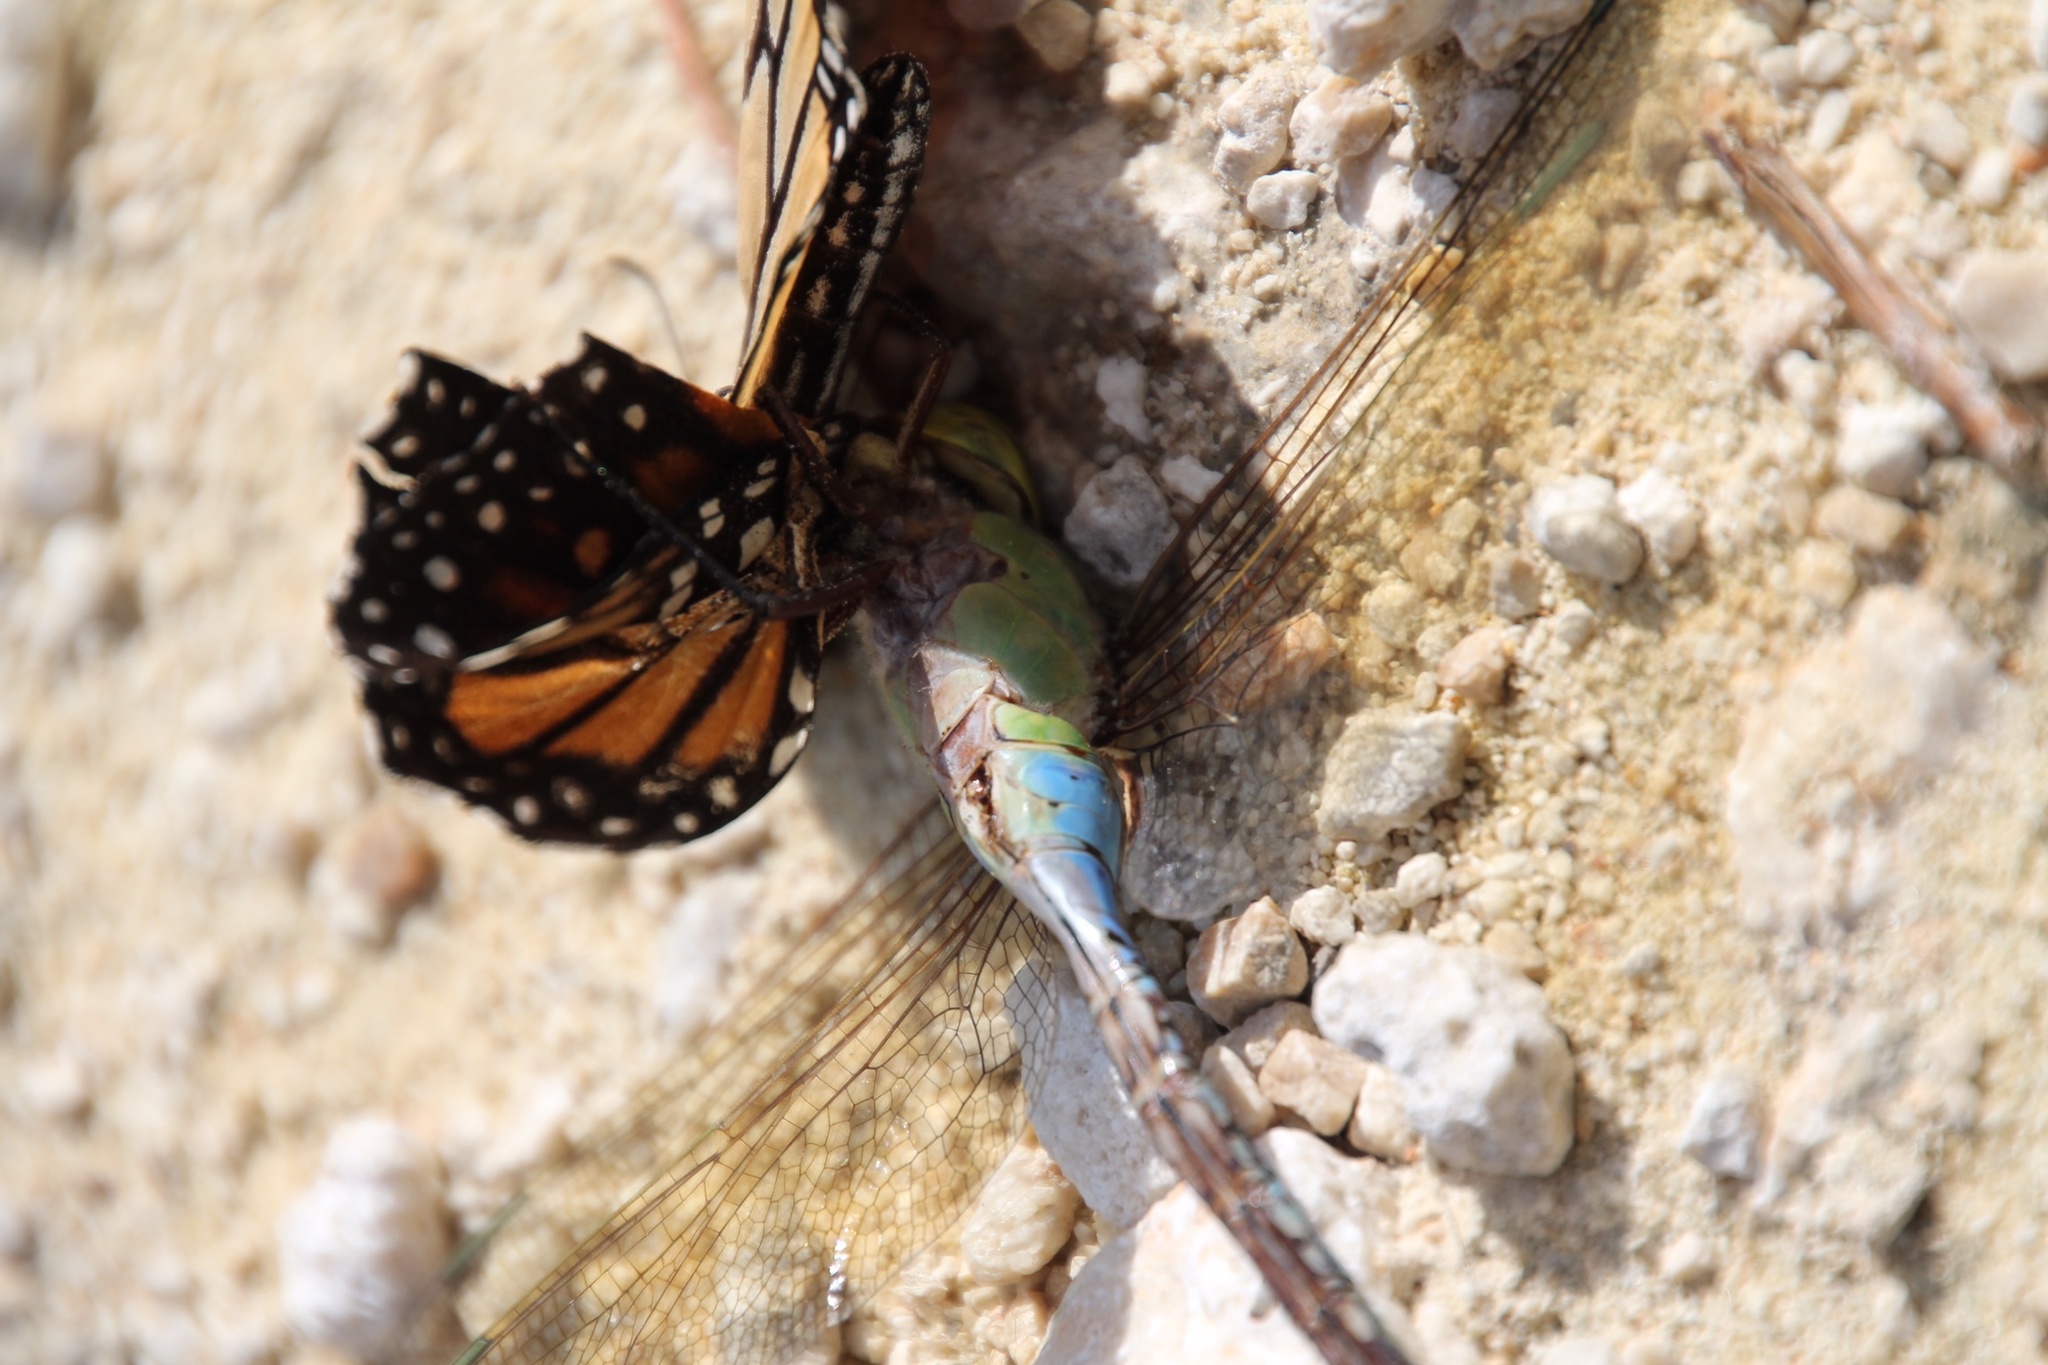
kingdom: Animalia
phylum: Arthropoda
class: Insecta
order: Odonata
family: Aeshnidae
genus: Anax
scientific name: Anax junius
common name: Common green darner
